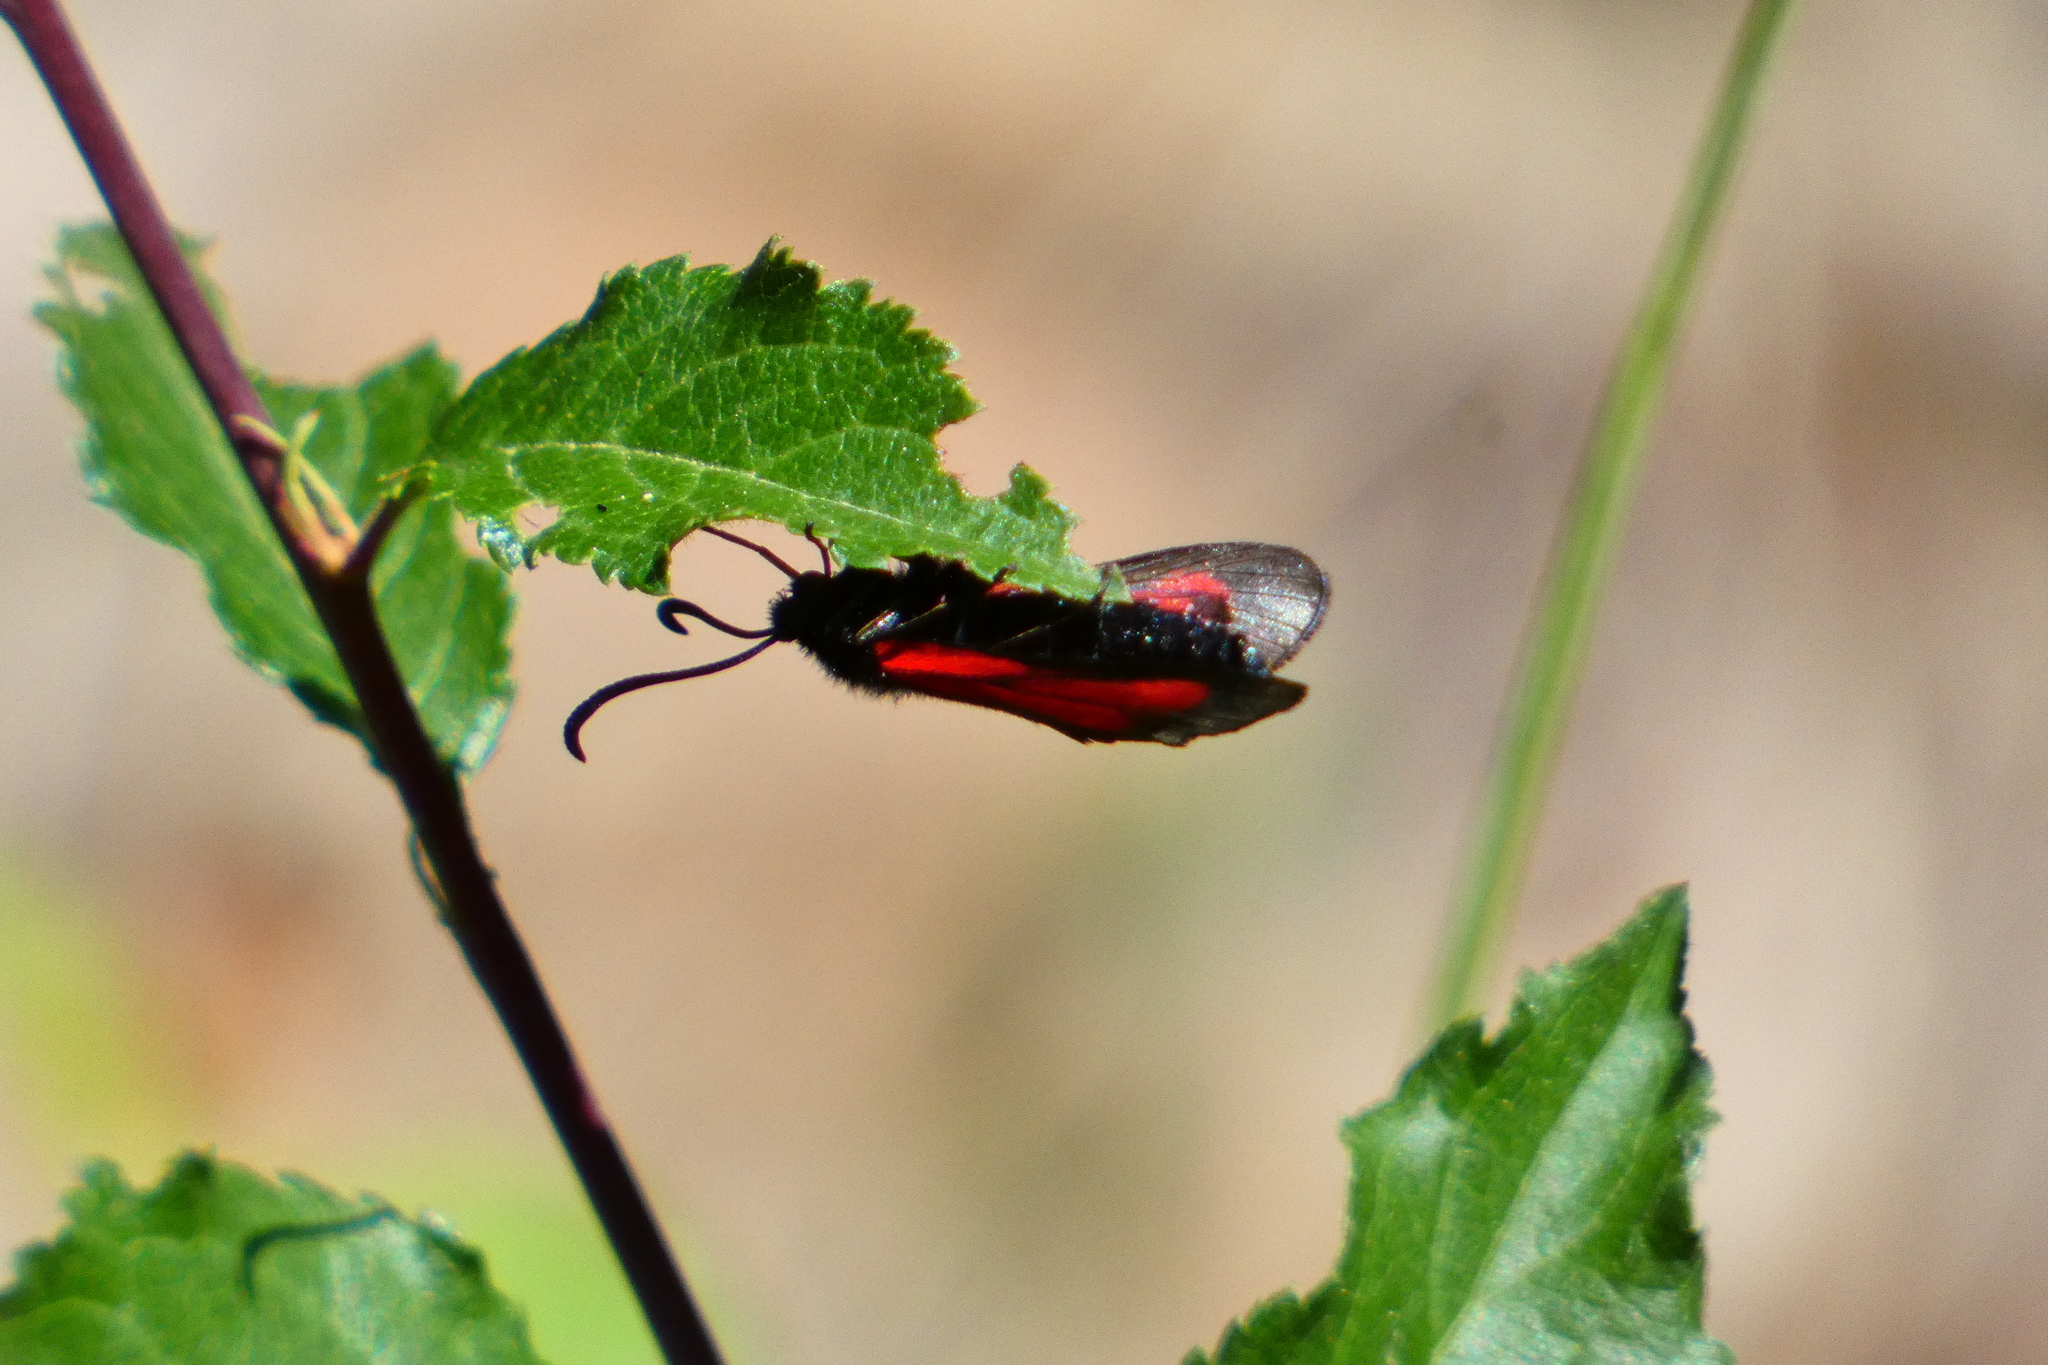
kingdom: Animalia
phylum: Arthropoda
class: Insecta
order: Lepidoptera
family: Zygaenidae
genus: Zygaena
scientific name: Zygaena osterodensis
